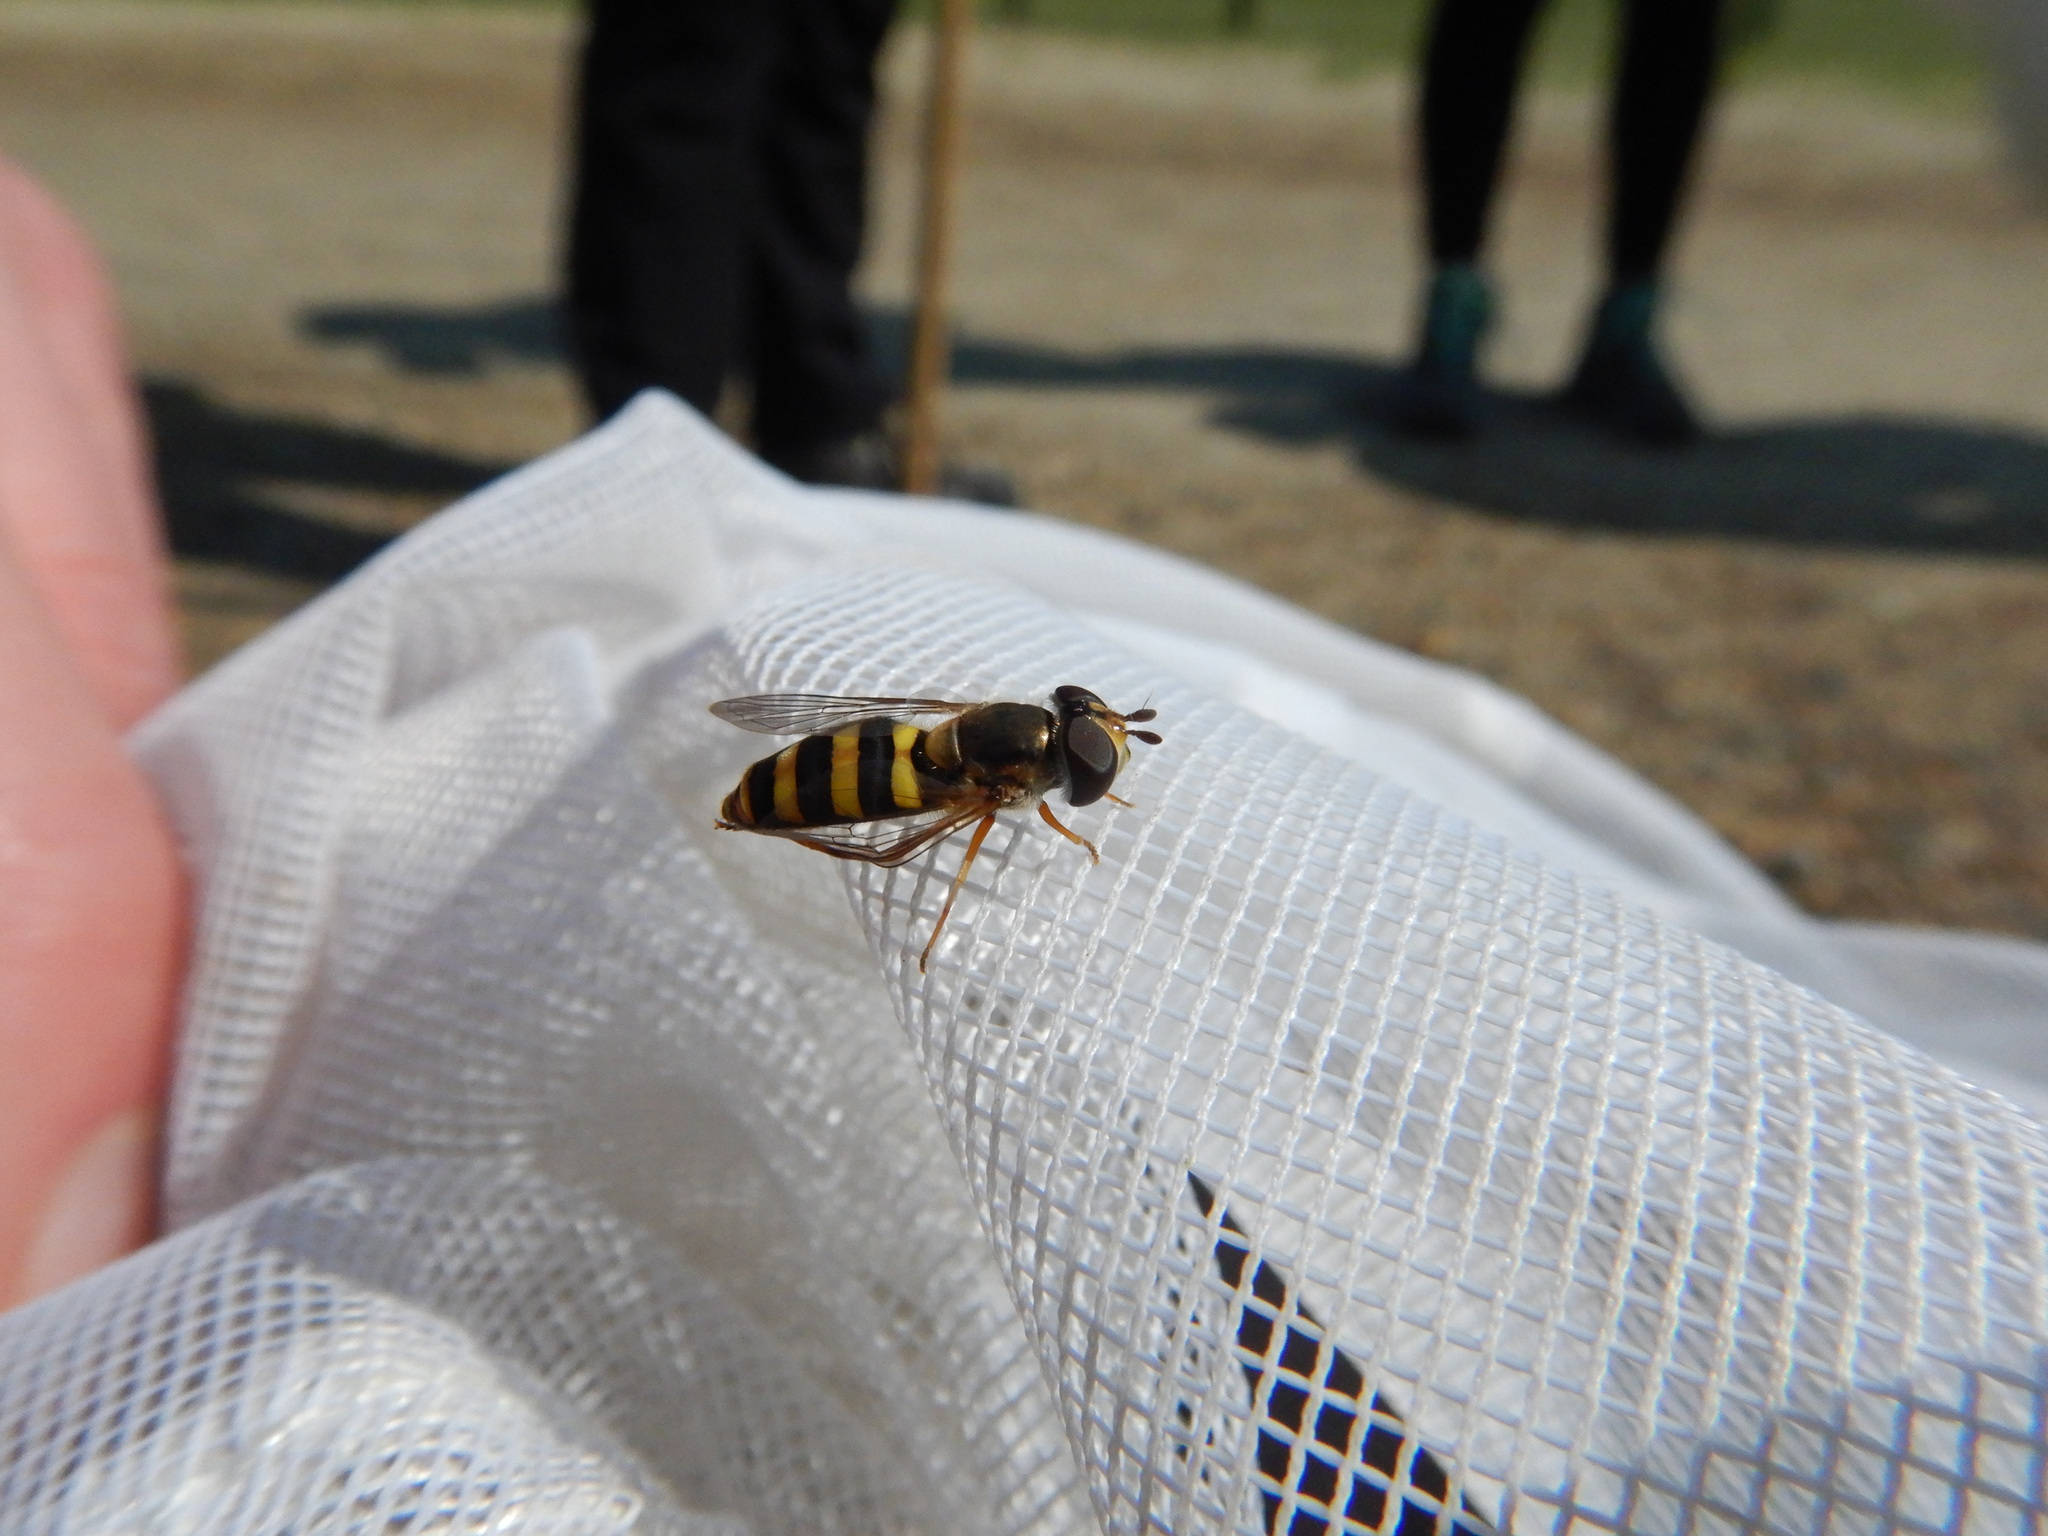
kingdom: Animalia
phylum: Arthropoda
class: Insecta
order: Diptera
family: Syrphidae
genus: Eupeodes
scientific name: Eupeodes
